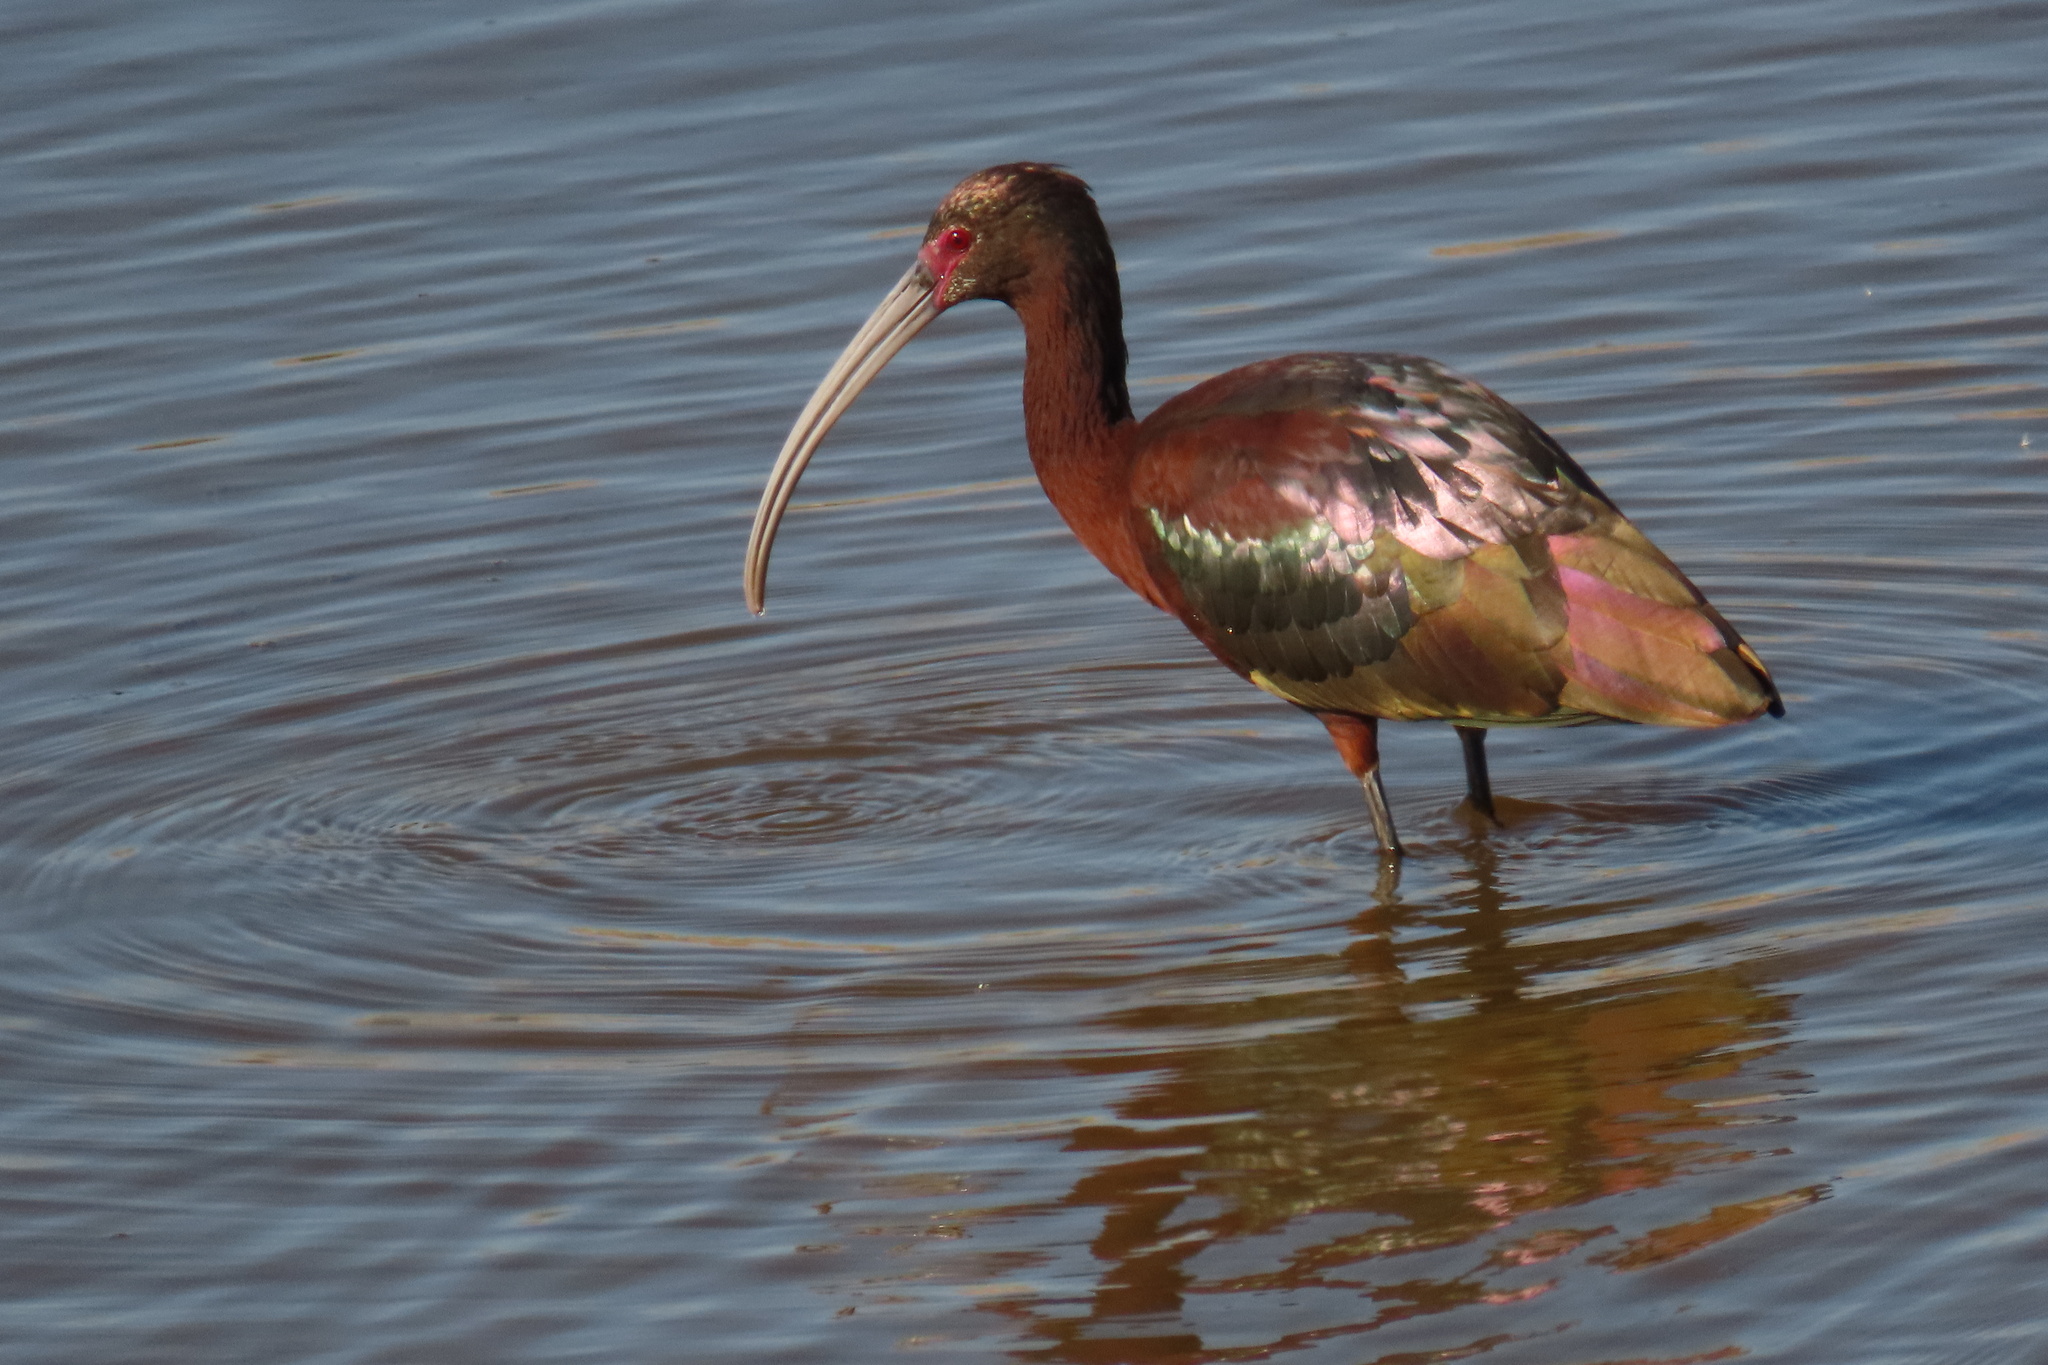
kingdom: Animalia
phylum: Chordata
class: Aves
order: Pelecaniformes
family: Threskiornithidae
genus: Plegadis
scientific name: Plegadis chihi
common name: White-faced ibis
